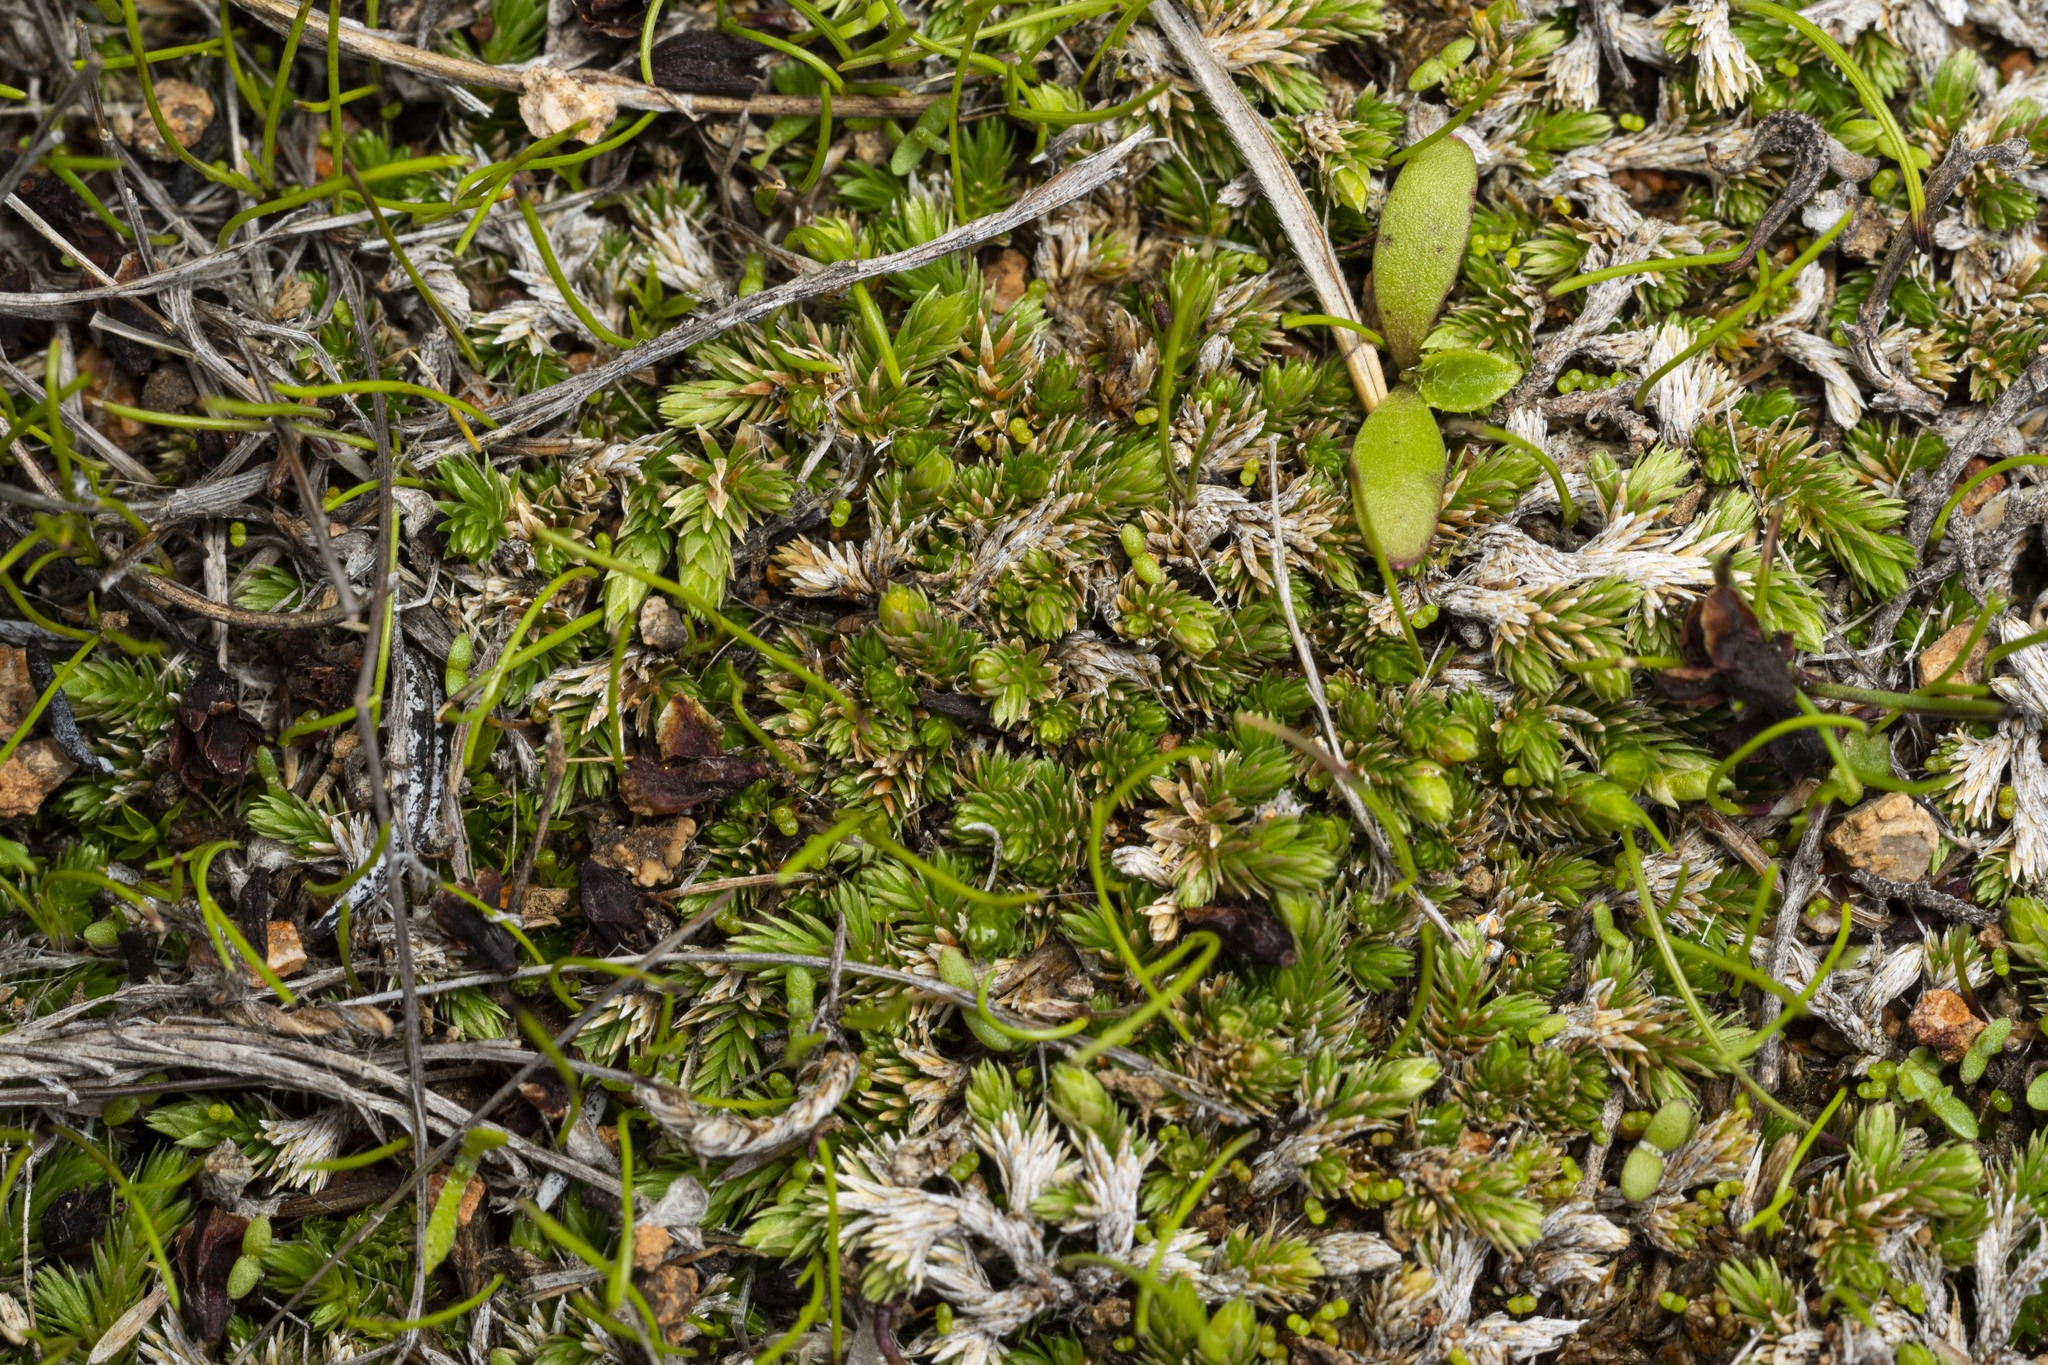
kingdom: Plantae
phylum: Tracheophyta
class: Lycopodiopsida
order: Selaginellales
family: Selaginellaceae
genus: Selaginella
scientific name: Selaginella cinerascens
